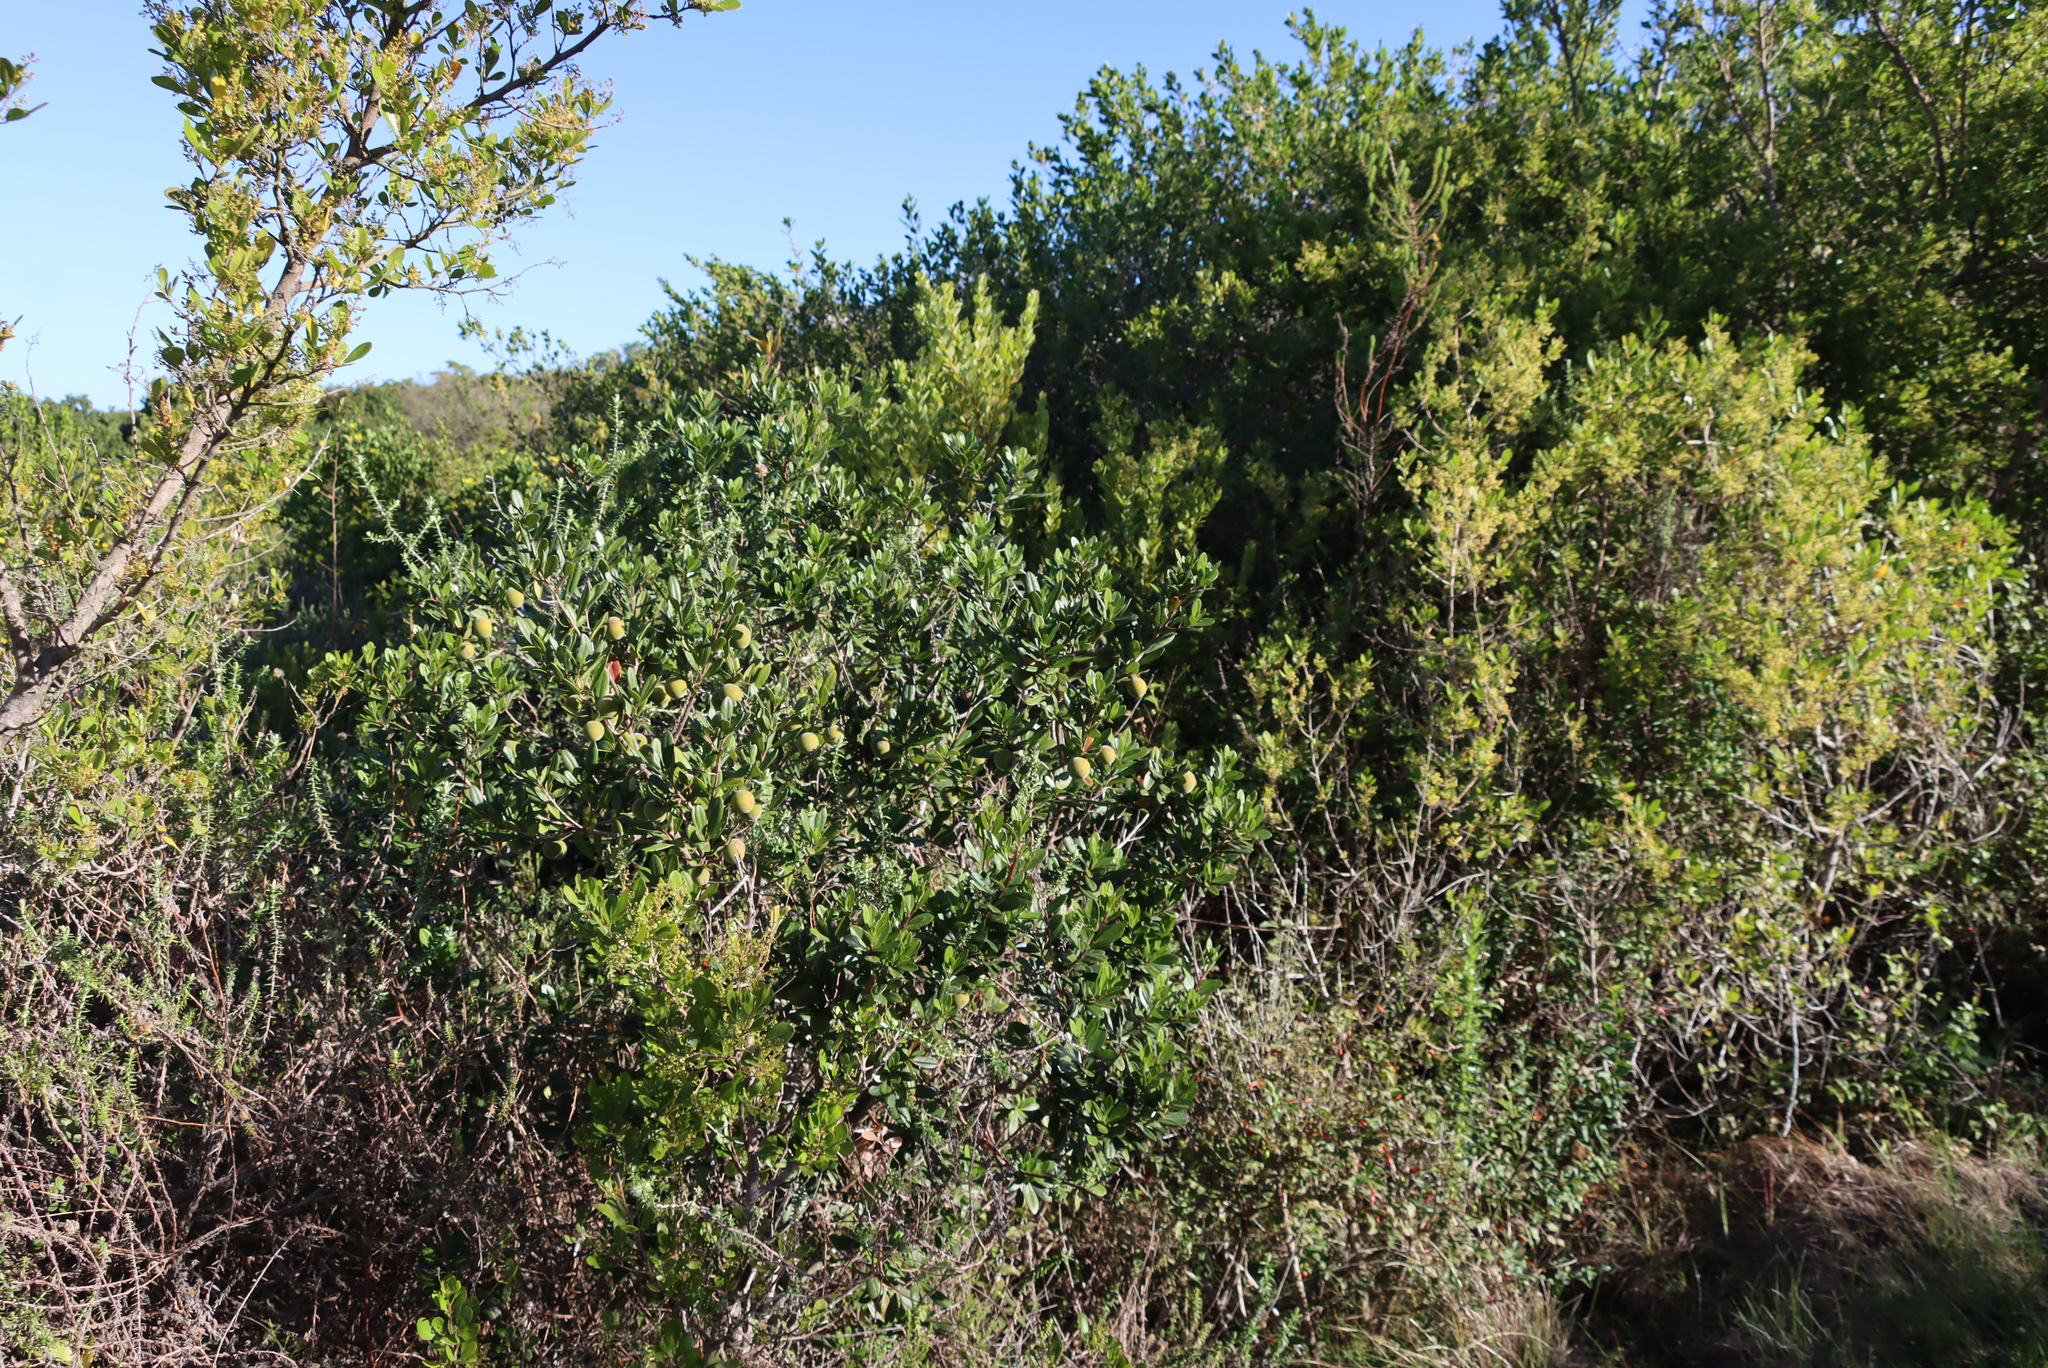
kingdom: Plantae
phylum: Tracheophyta
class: Magnoliopsida
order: Ericales
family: Ebenaceae
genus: Diospyros
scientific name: Diospyros dichrophylla
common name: Common star-apple
